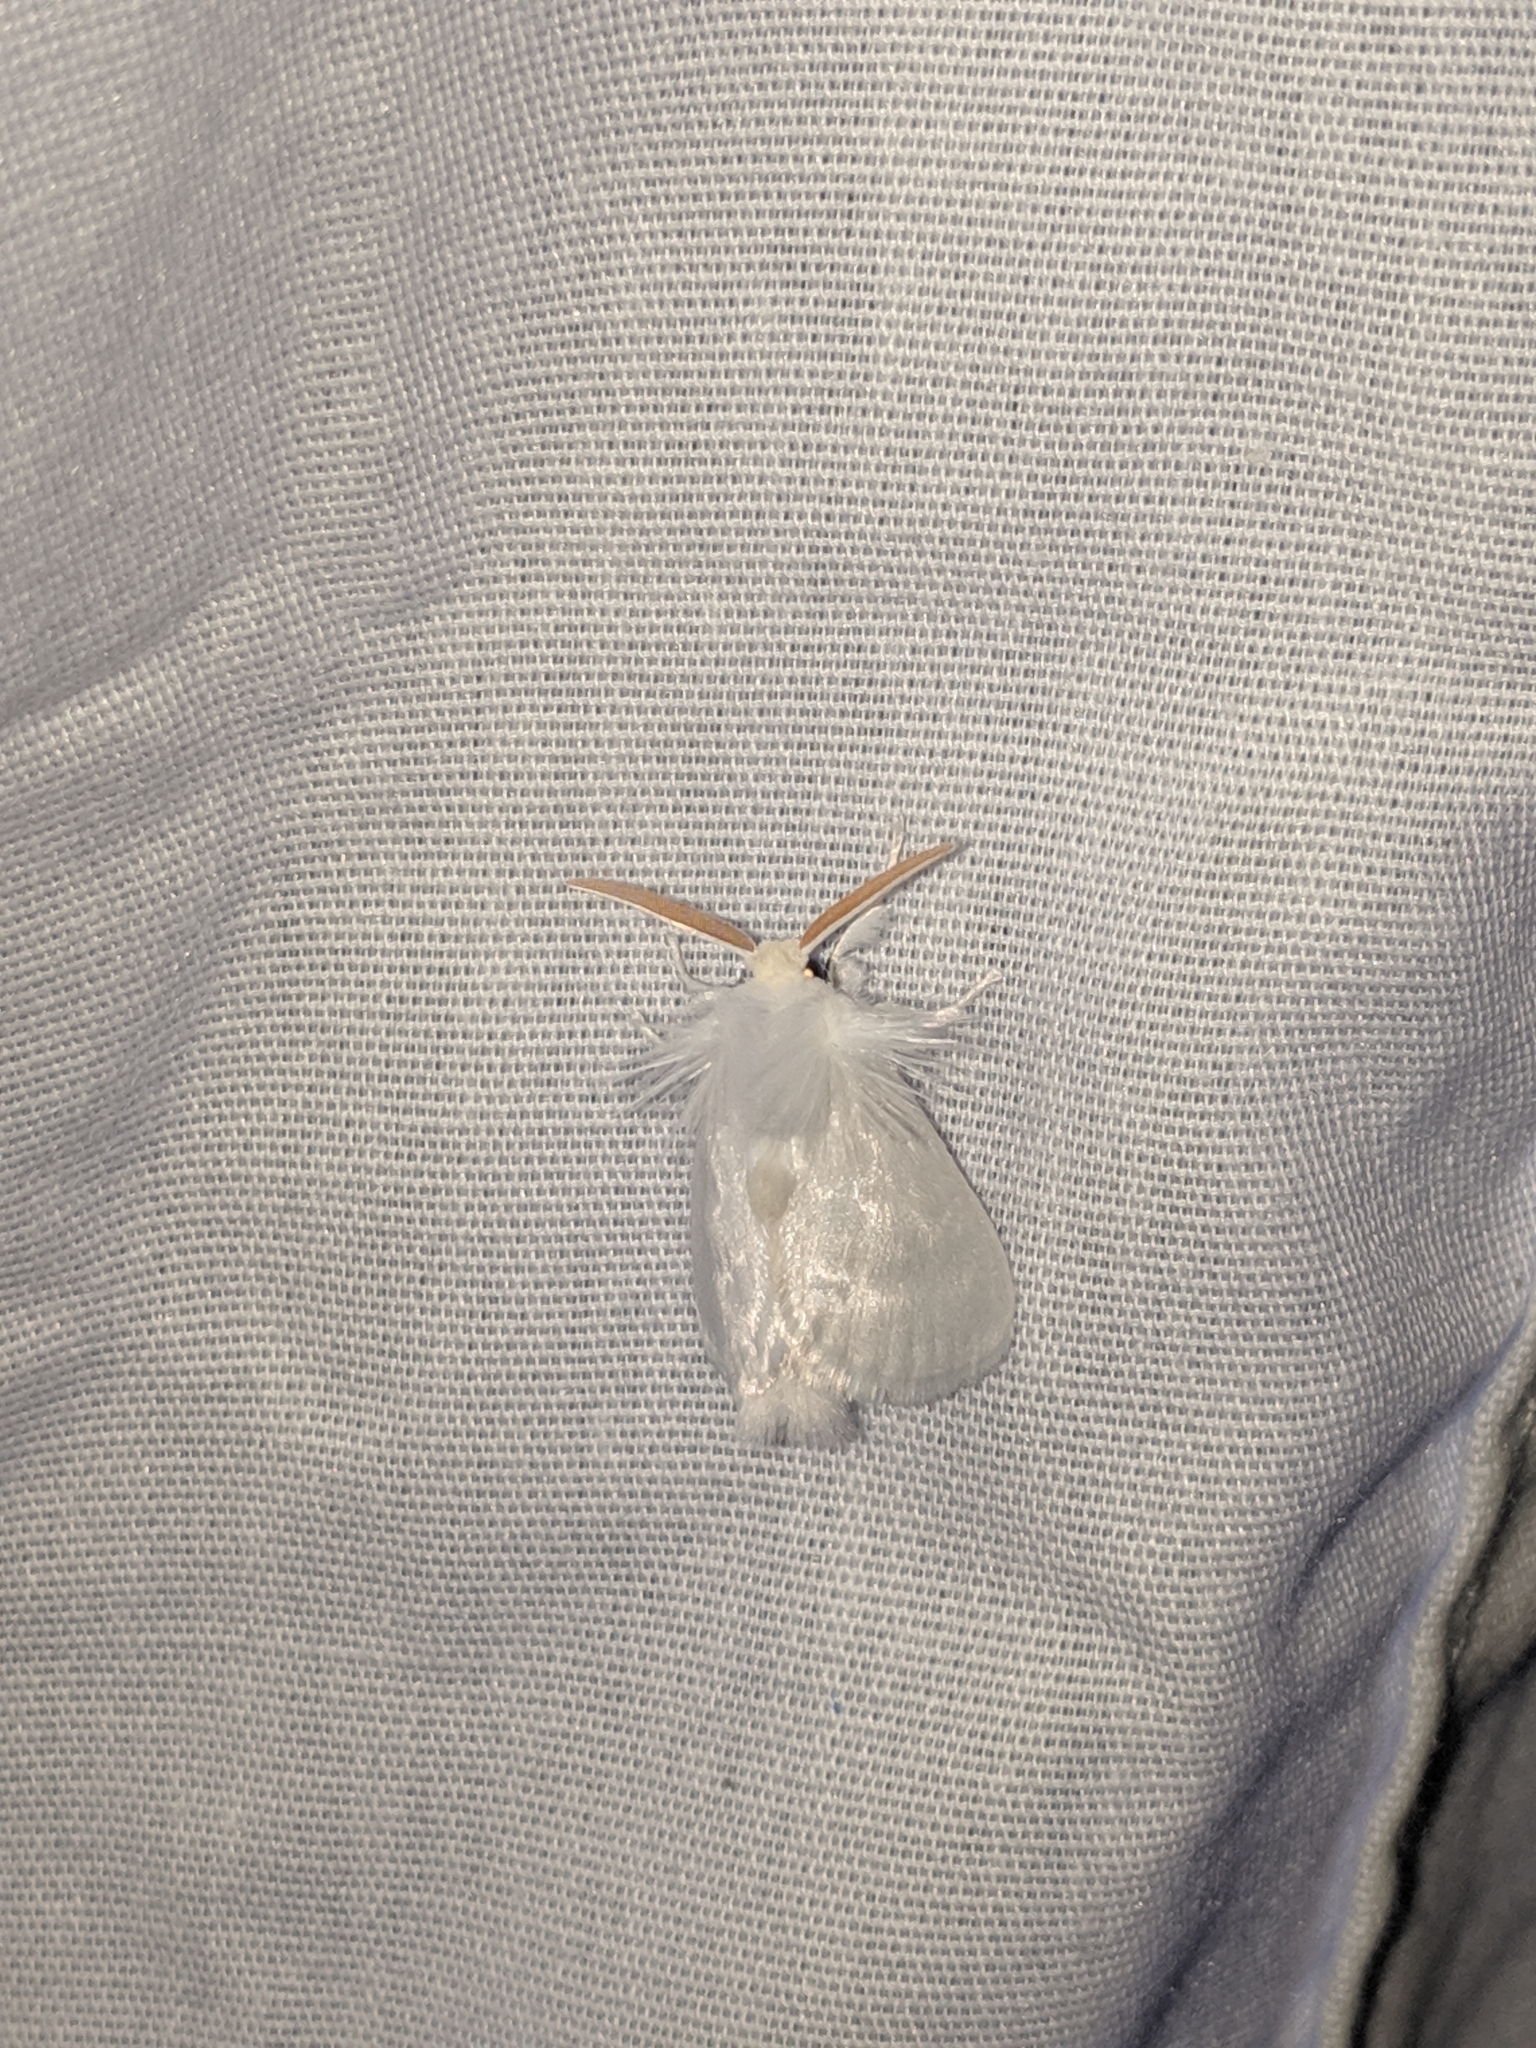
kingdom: Animalia
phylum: Arthropoda
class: Insecta
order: Lepidoptera
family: Megalopygidae
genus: Norape
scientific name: Norape cretata
